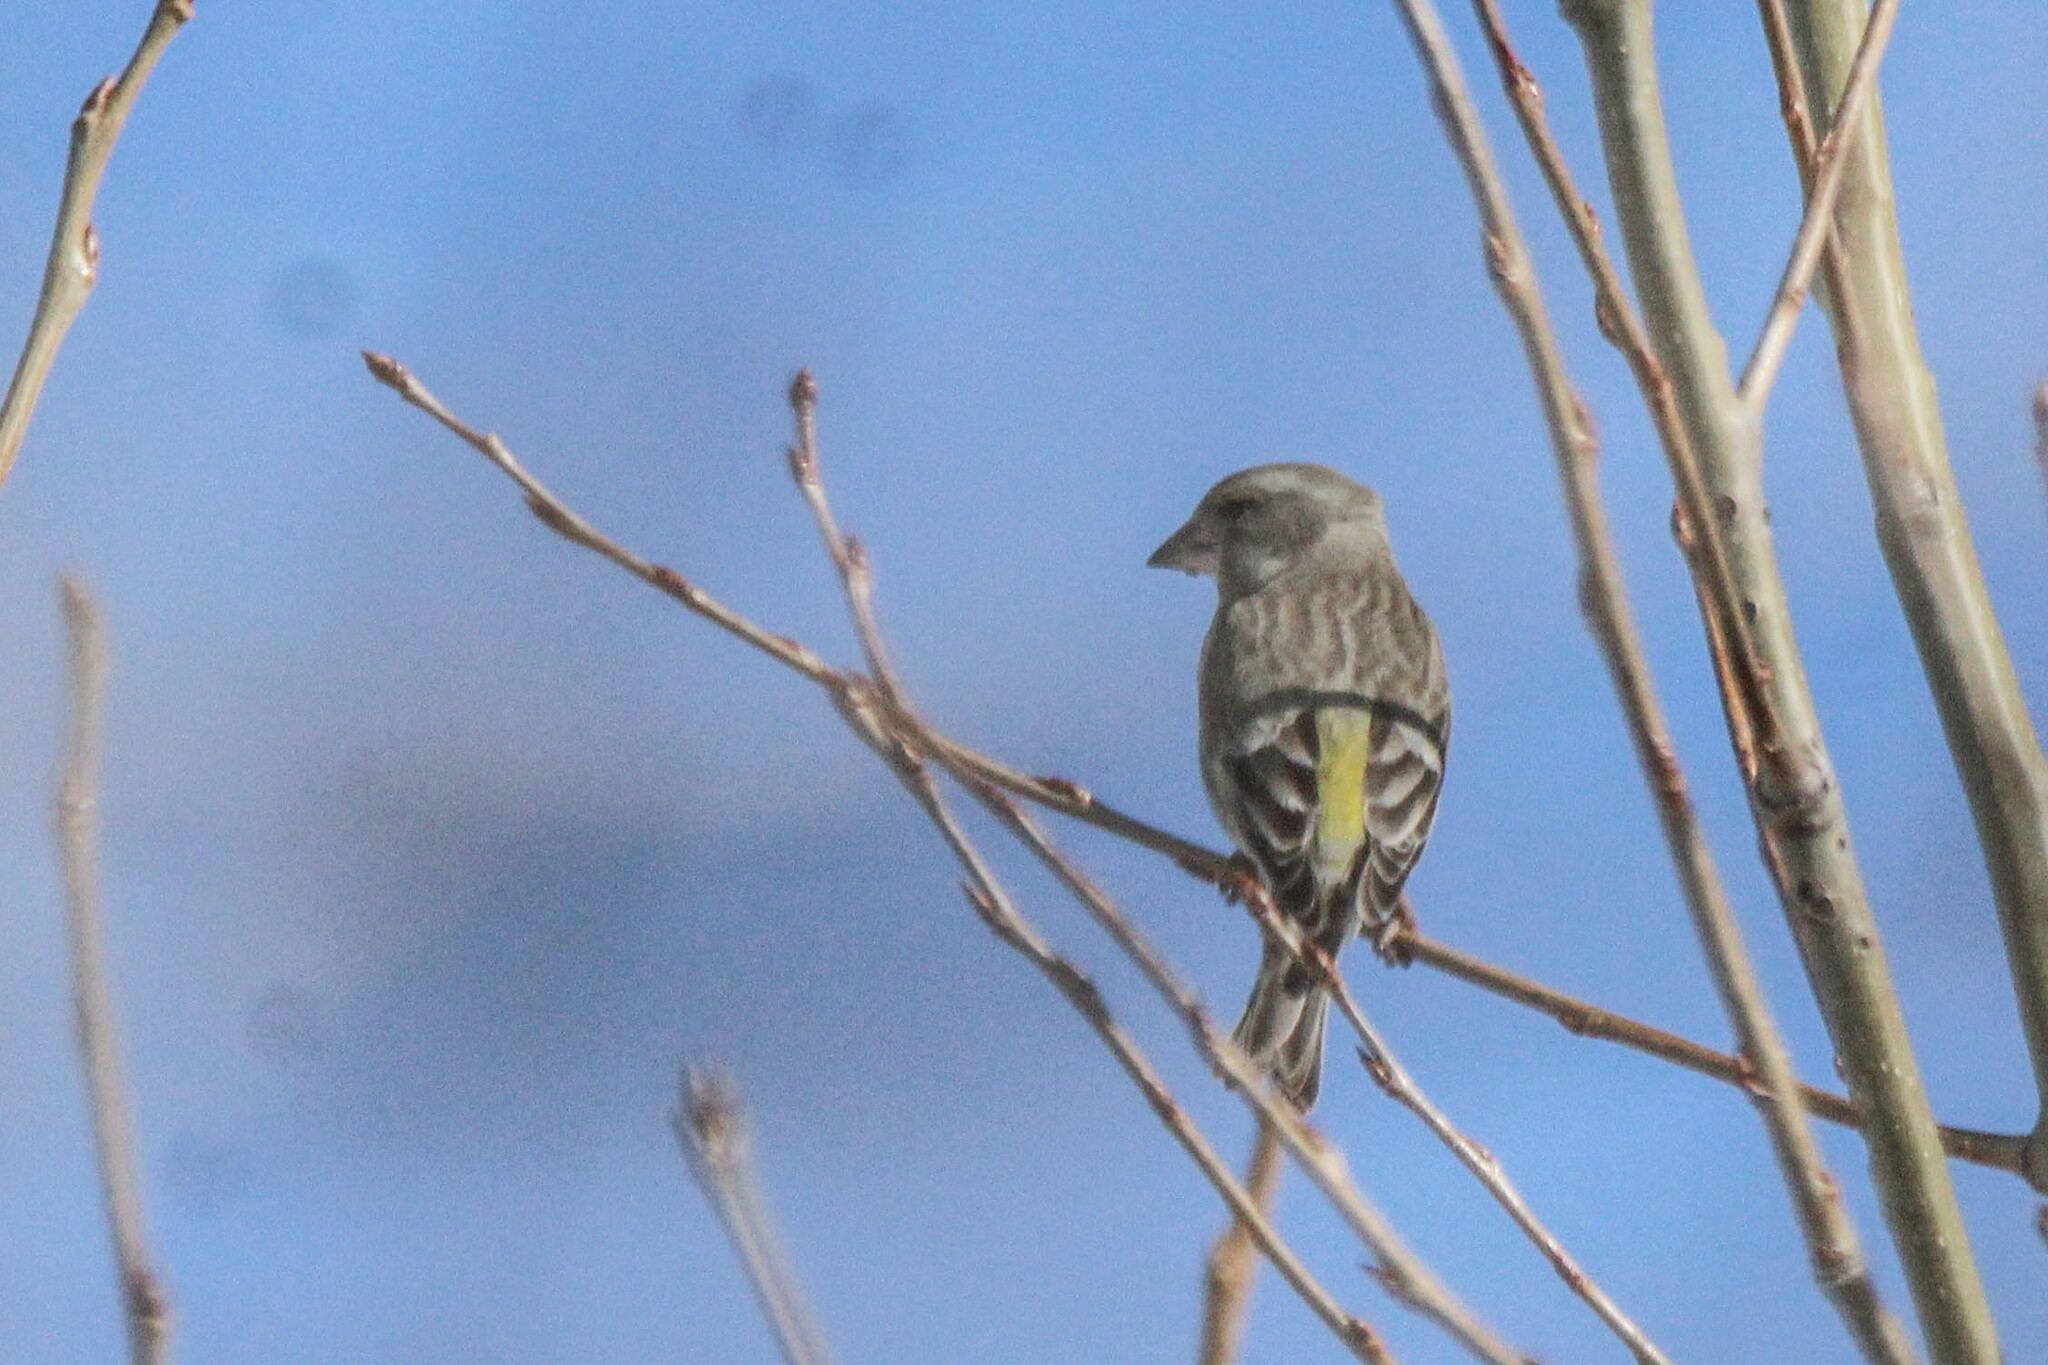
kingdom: Plantae
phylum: Tracheophyta
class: Liliopsida
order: Poales
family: Poaceae
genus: Chloris
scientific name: Chloris chloris
